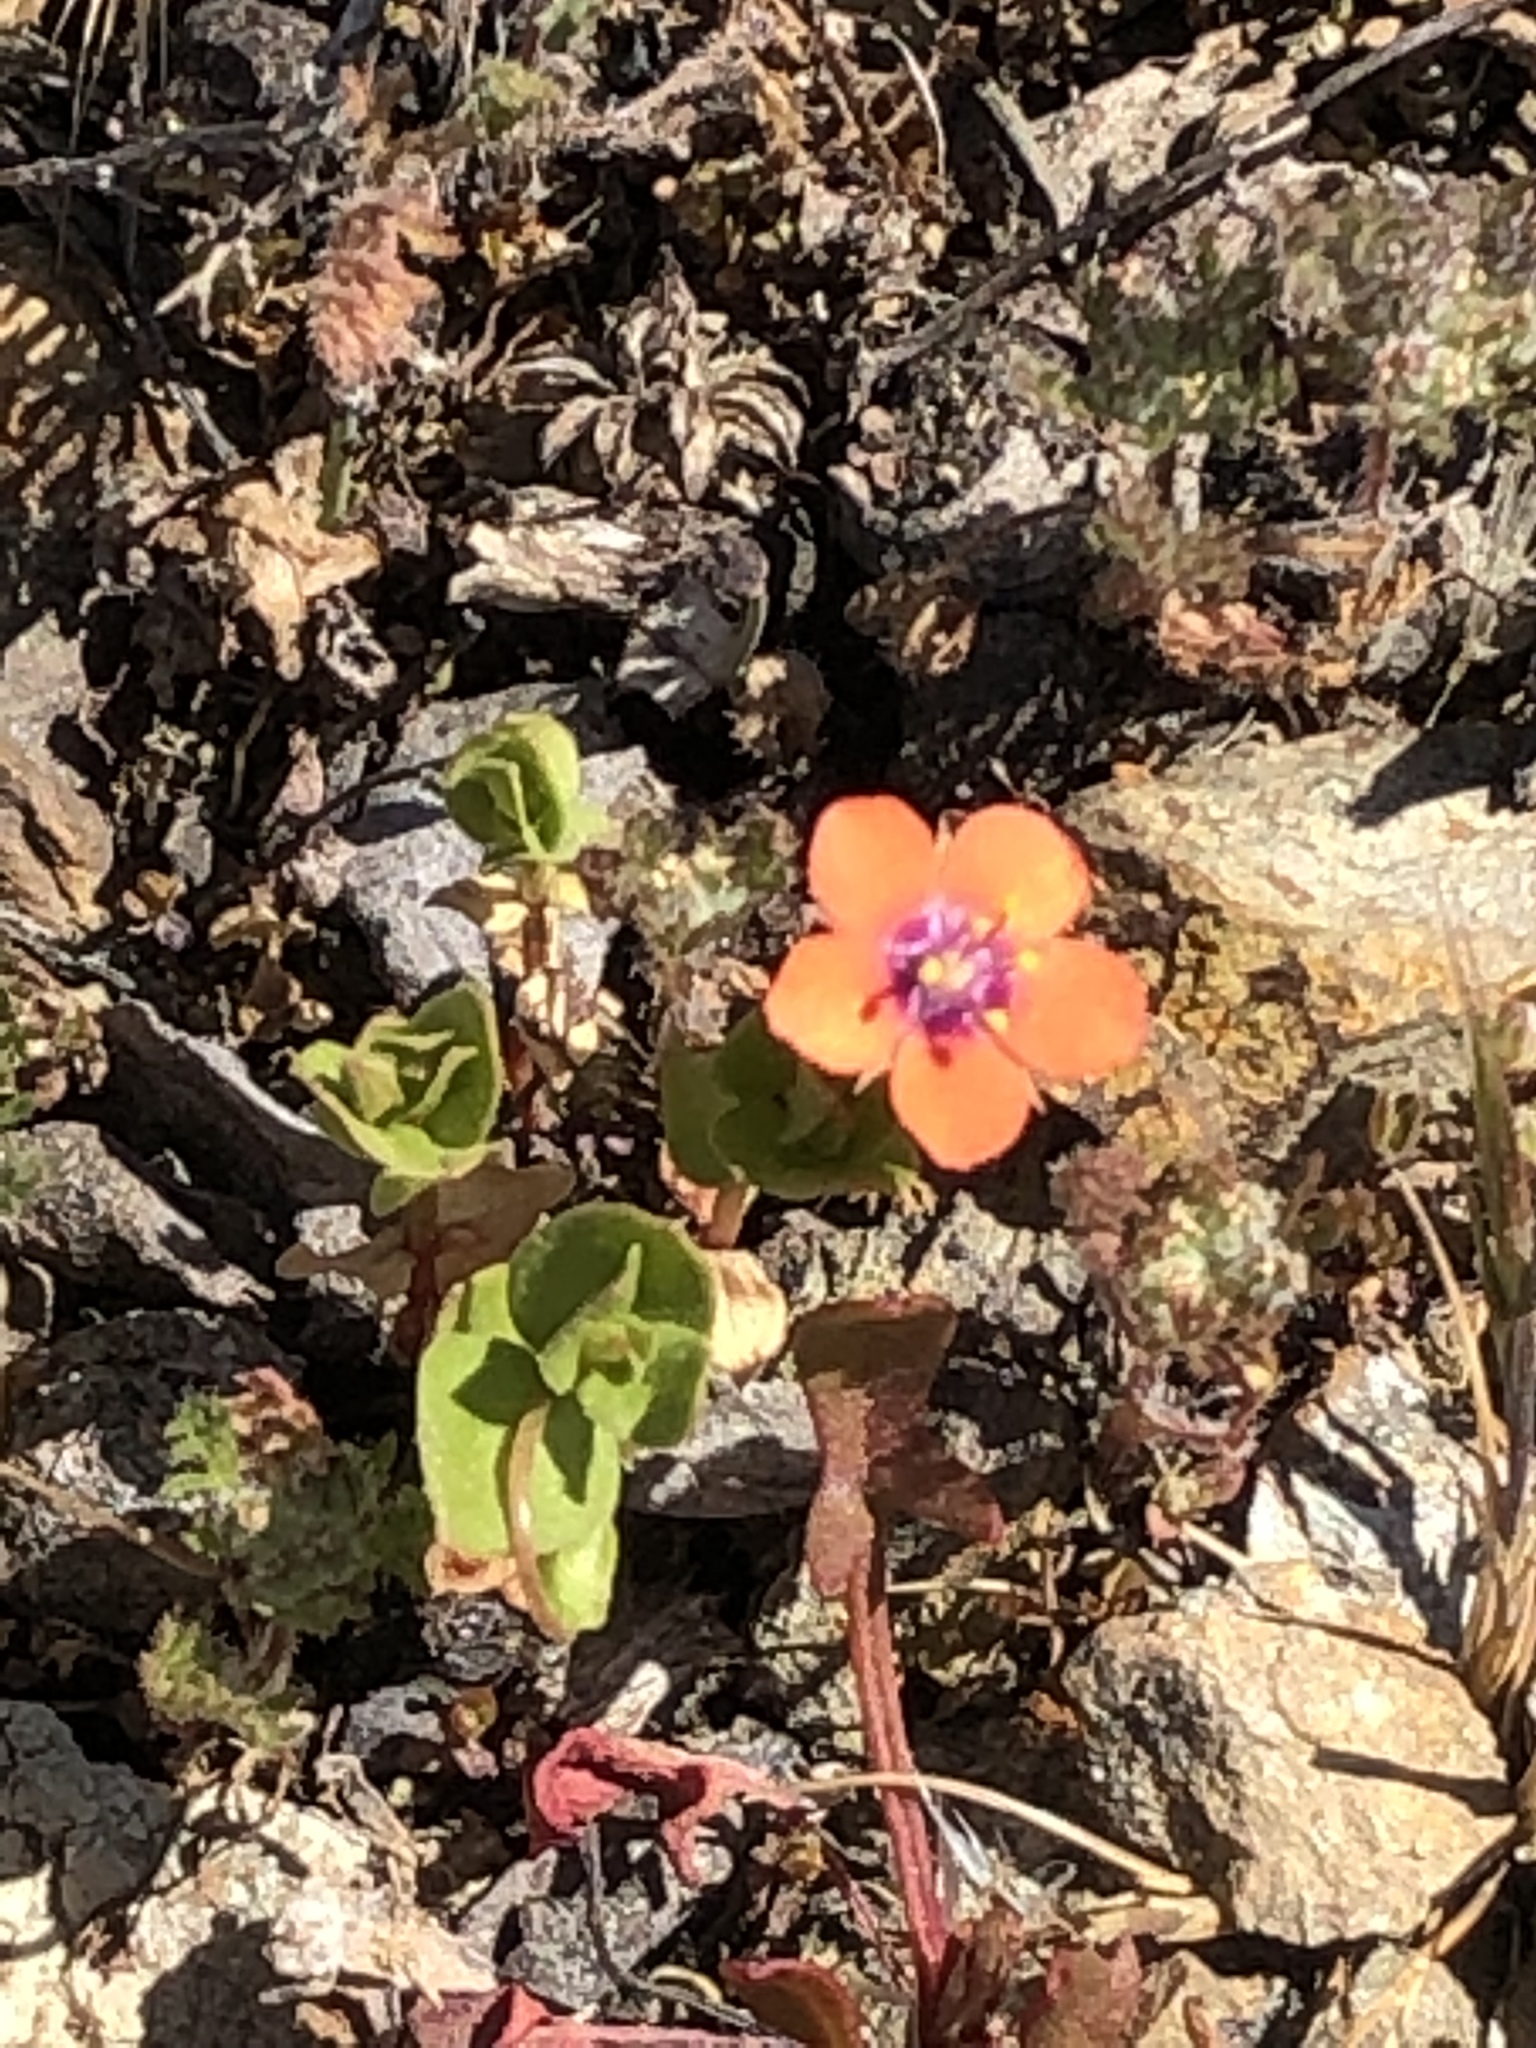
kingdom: Plantae
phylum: Tracheophyta
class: Magnoliopsida
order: Ericales
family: Primulaceae
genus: Lysimachia
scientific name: Lysimachia arvensis
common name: Scarlet pimpernel
